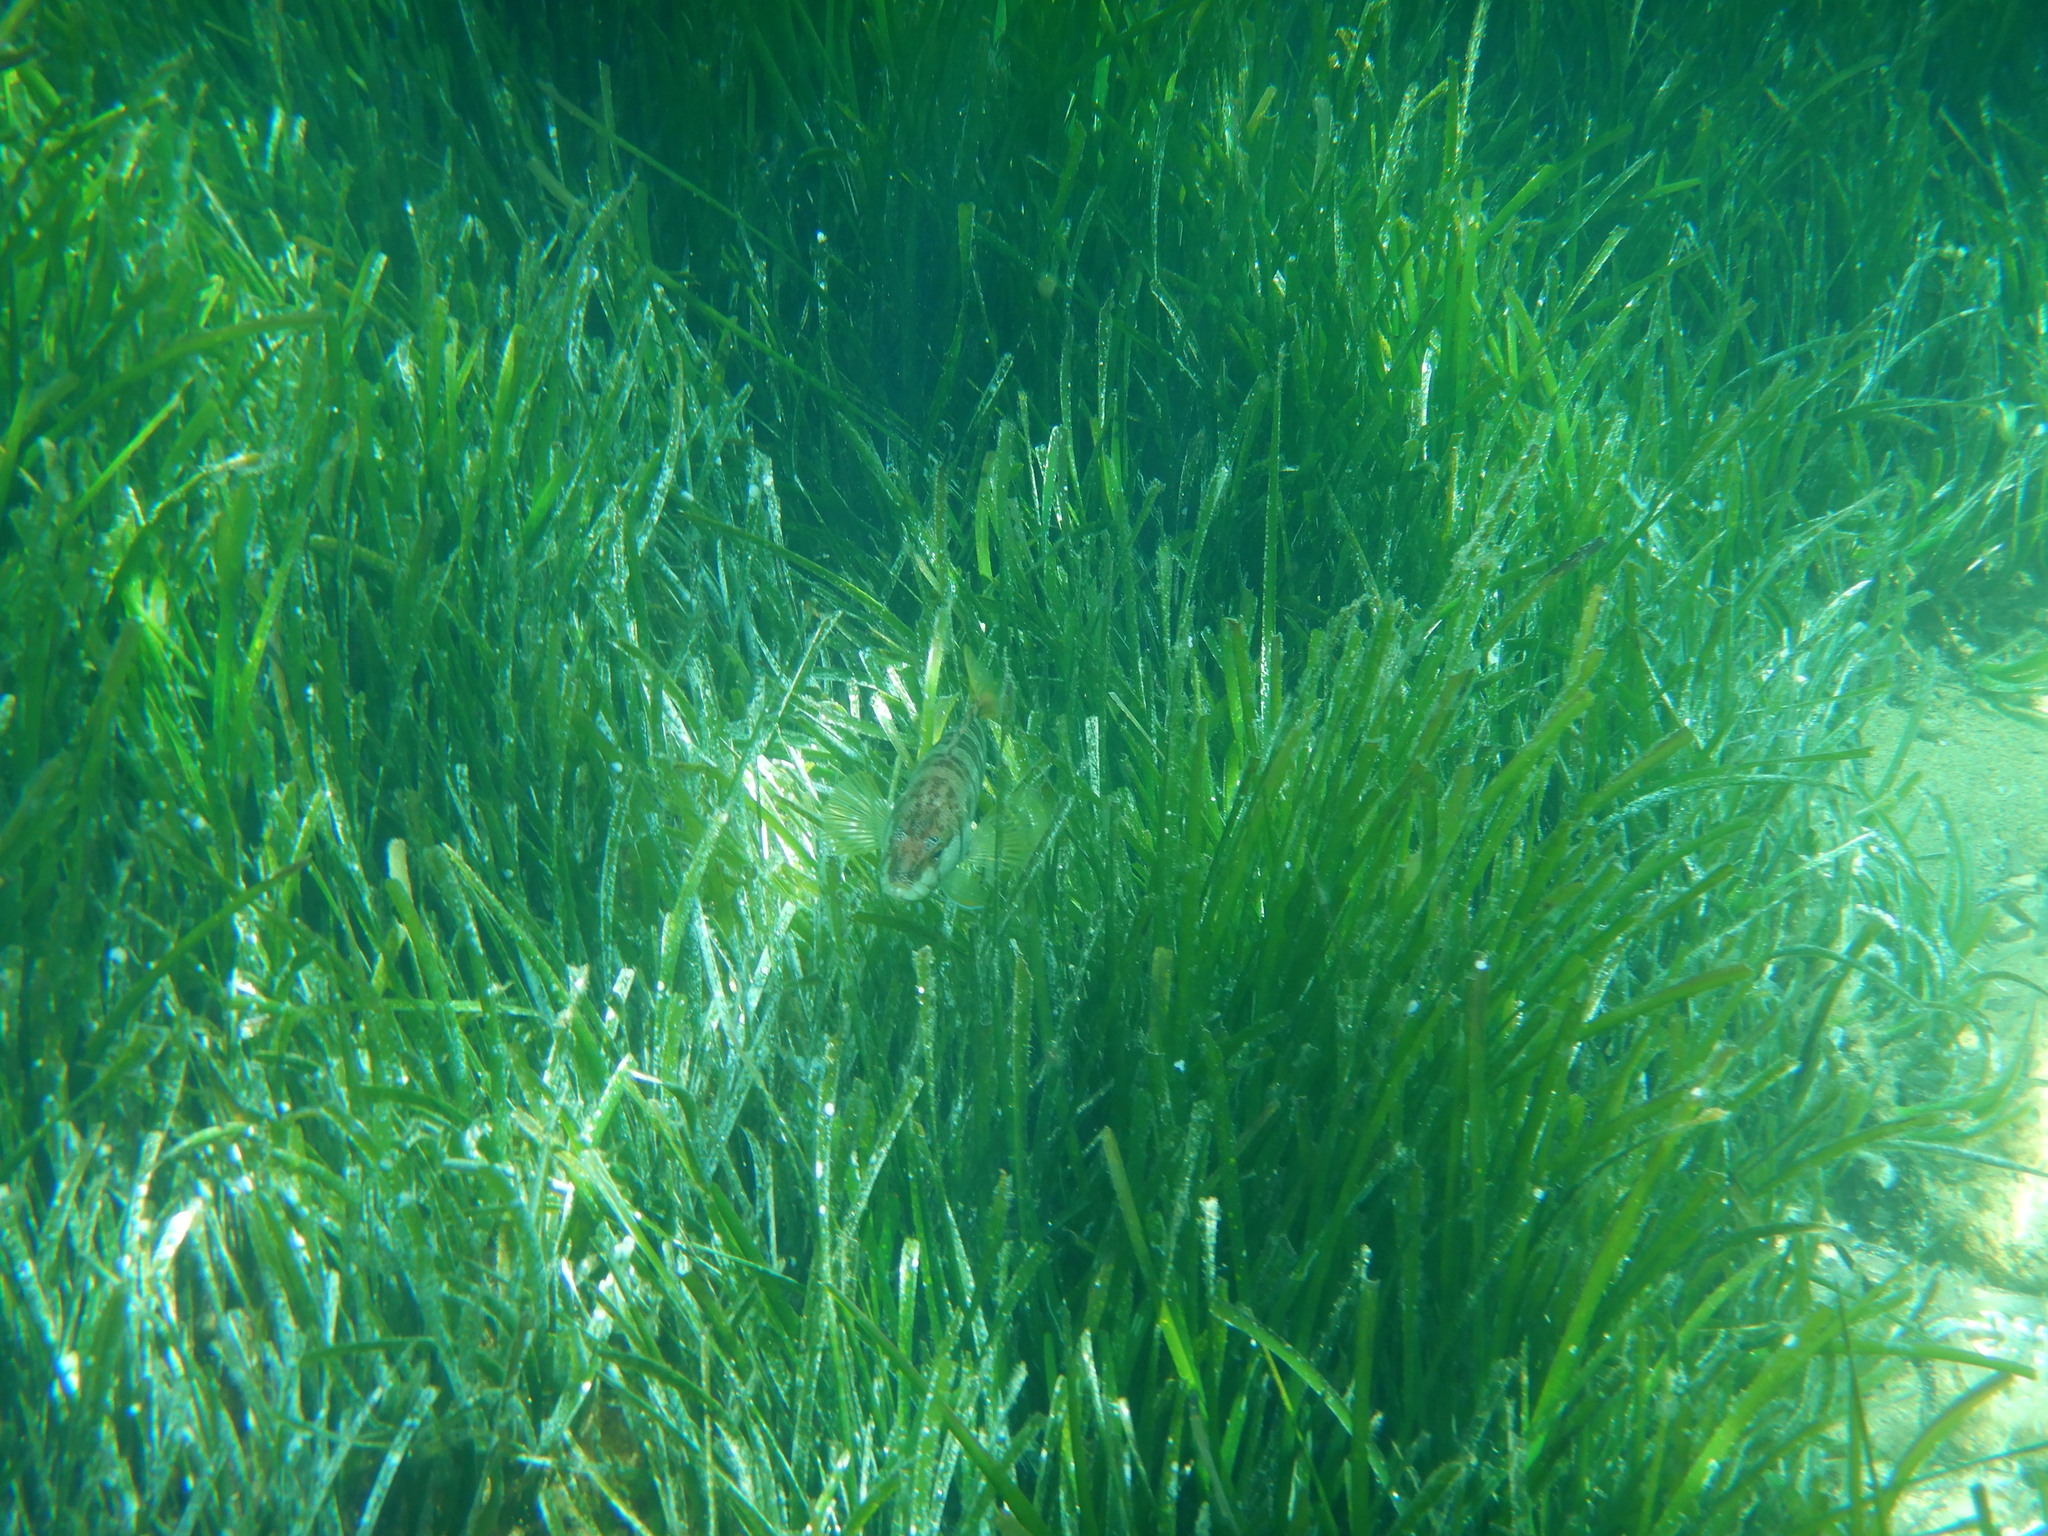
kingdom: Animalia
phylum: Chordata
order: Perciformes
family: Serranidae
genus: Serranus
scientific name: Serranus scriba
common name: Painted comber
